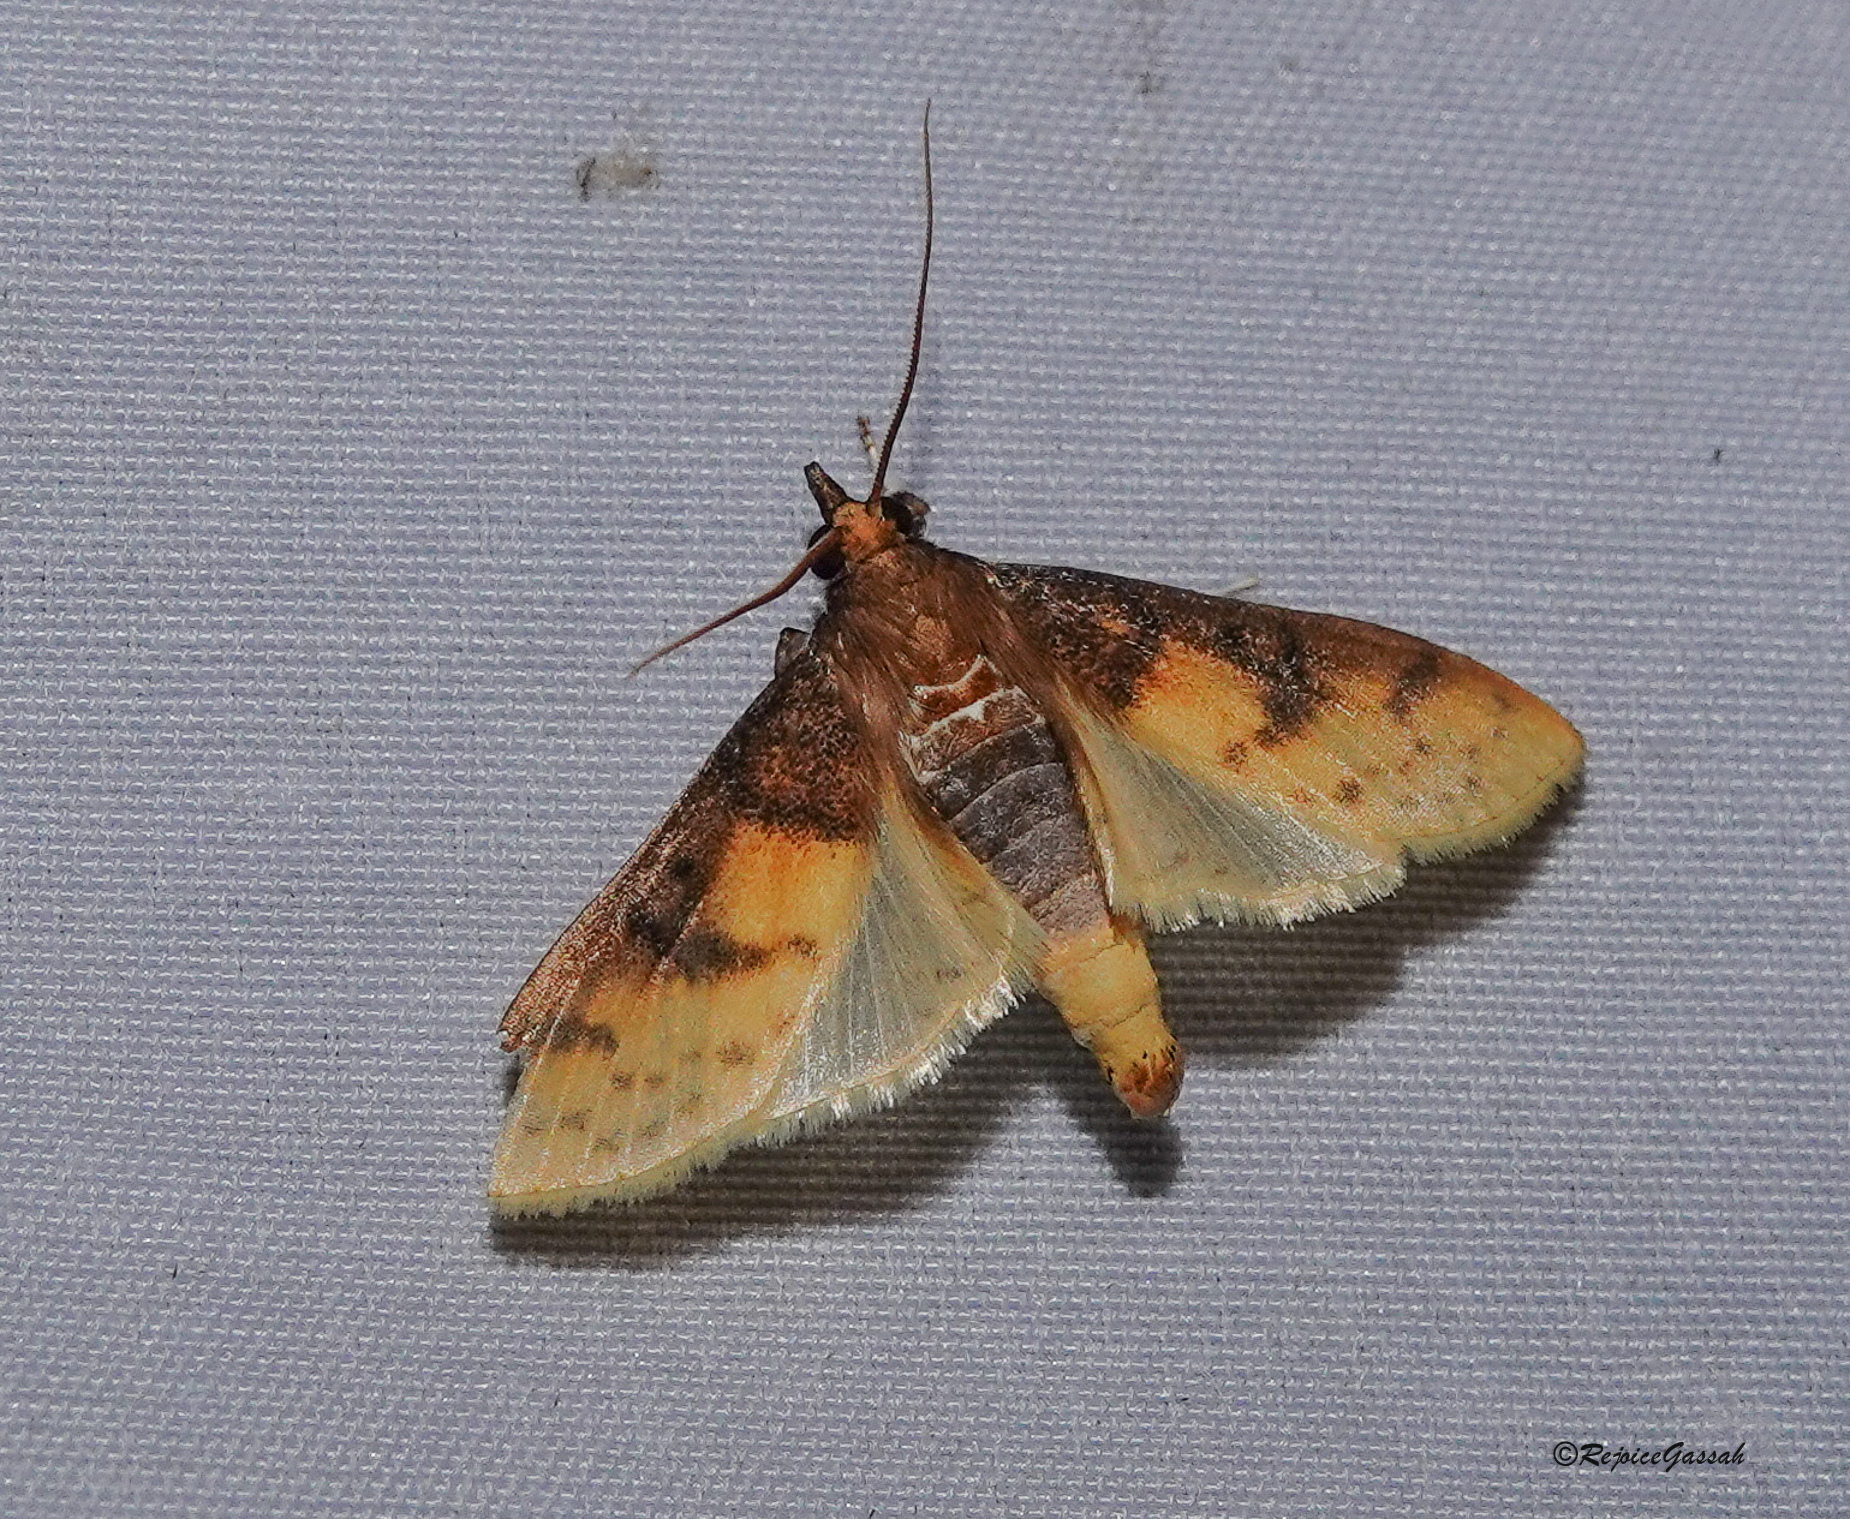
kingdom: Animalia
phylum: Arthropoda
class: Insecta
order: Lepidoptera
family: Crambidae
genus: Polygrammodes
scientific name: Polygrammodes sabelialis
